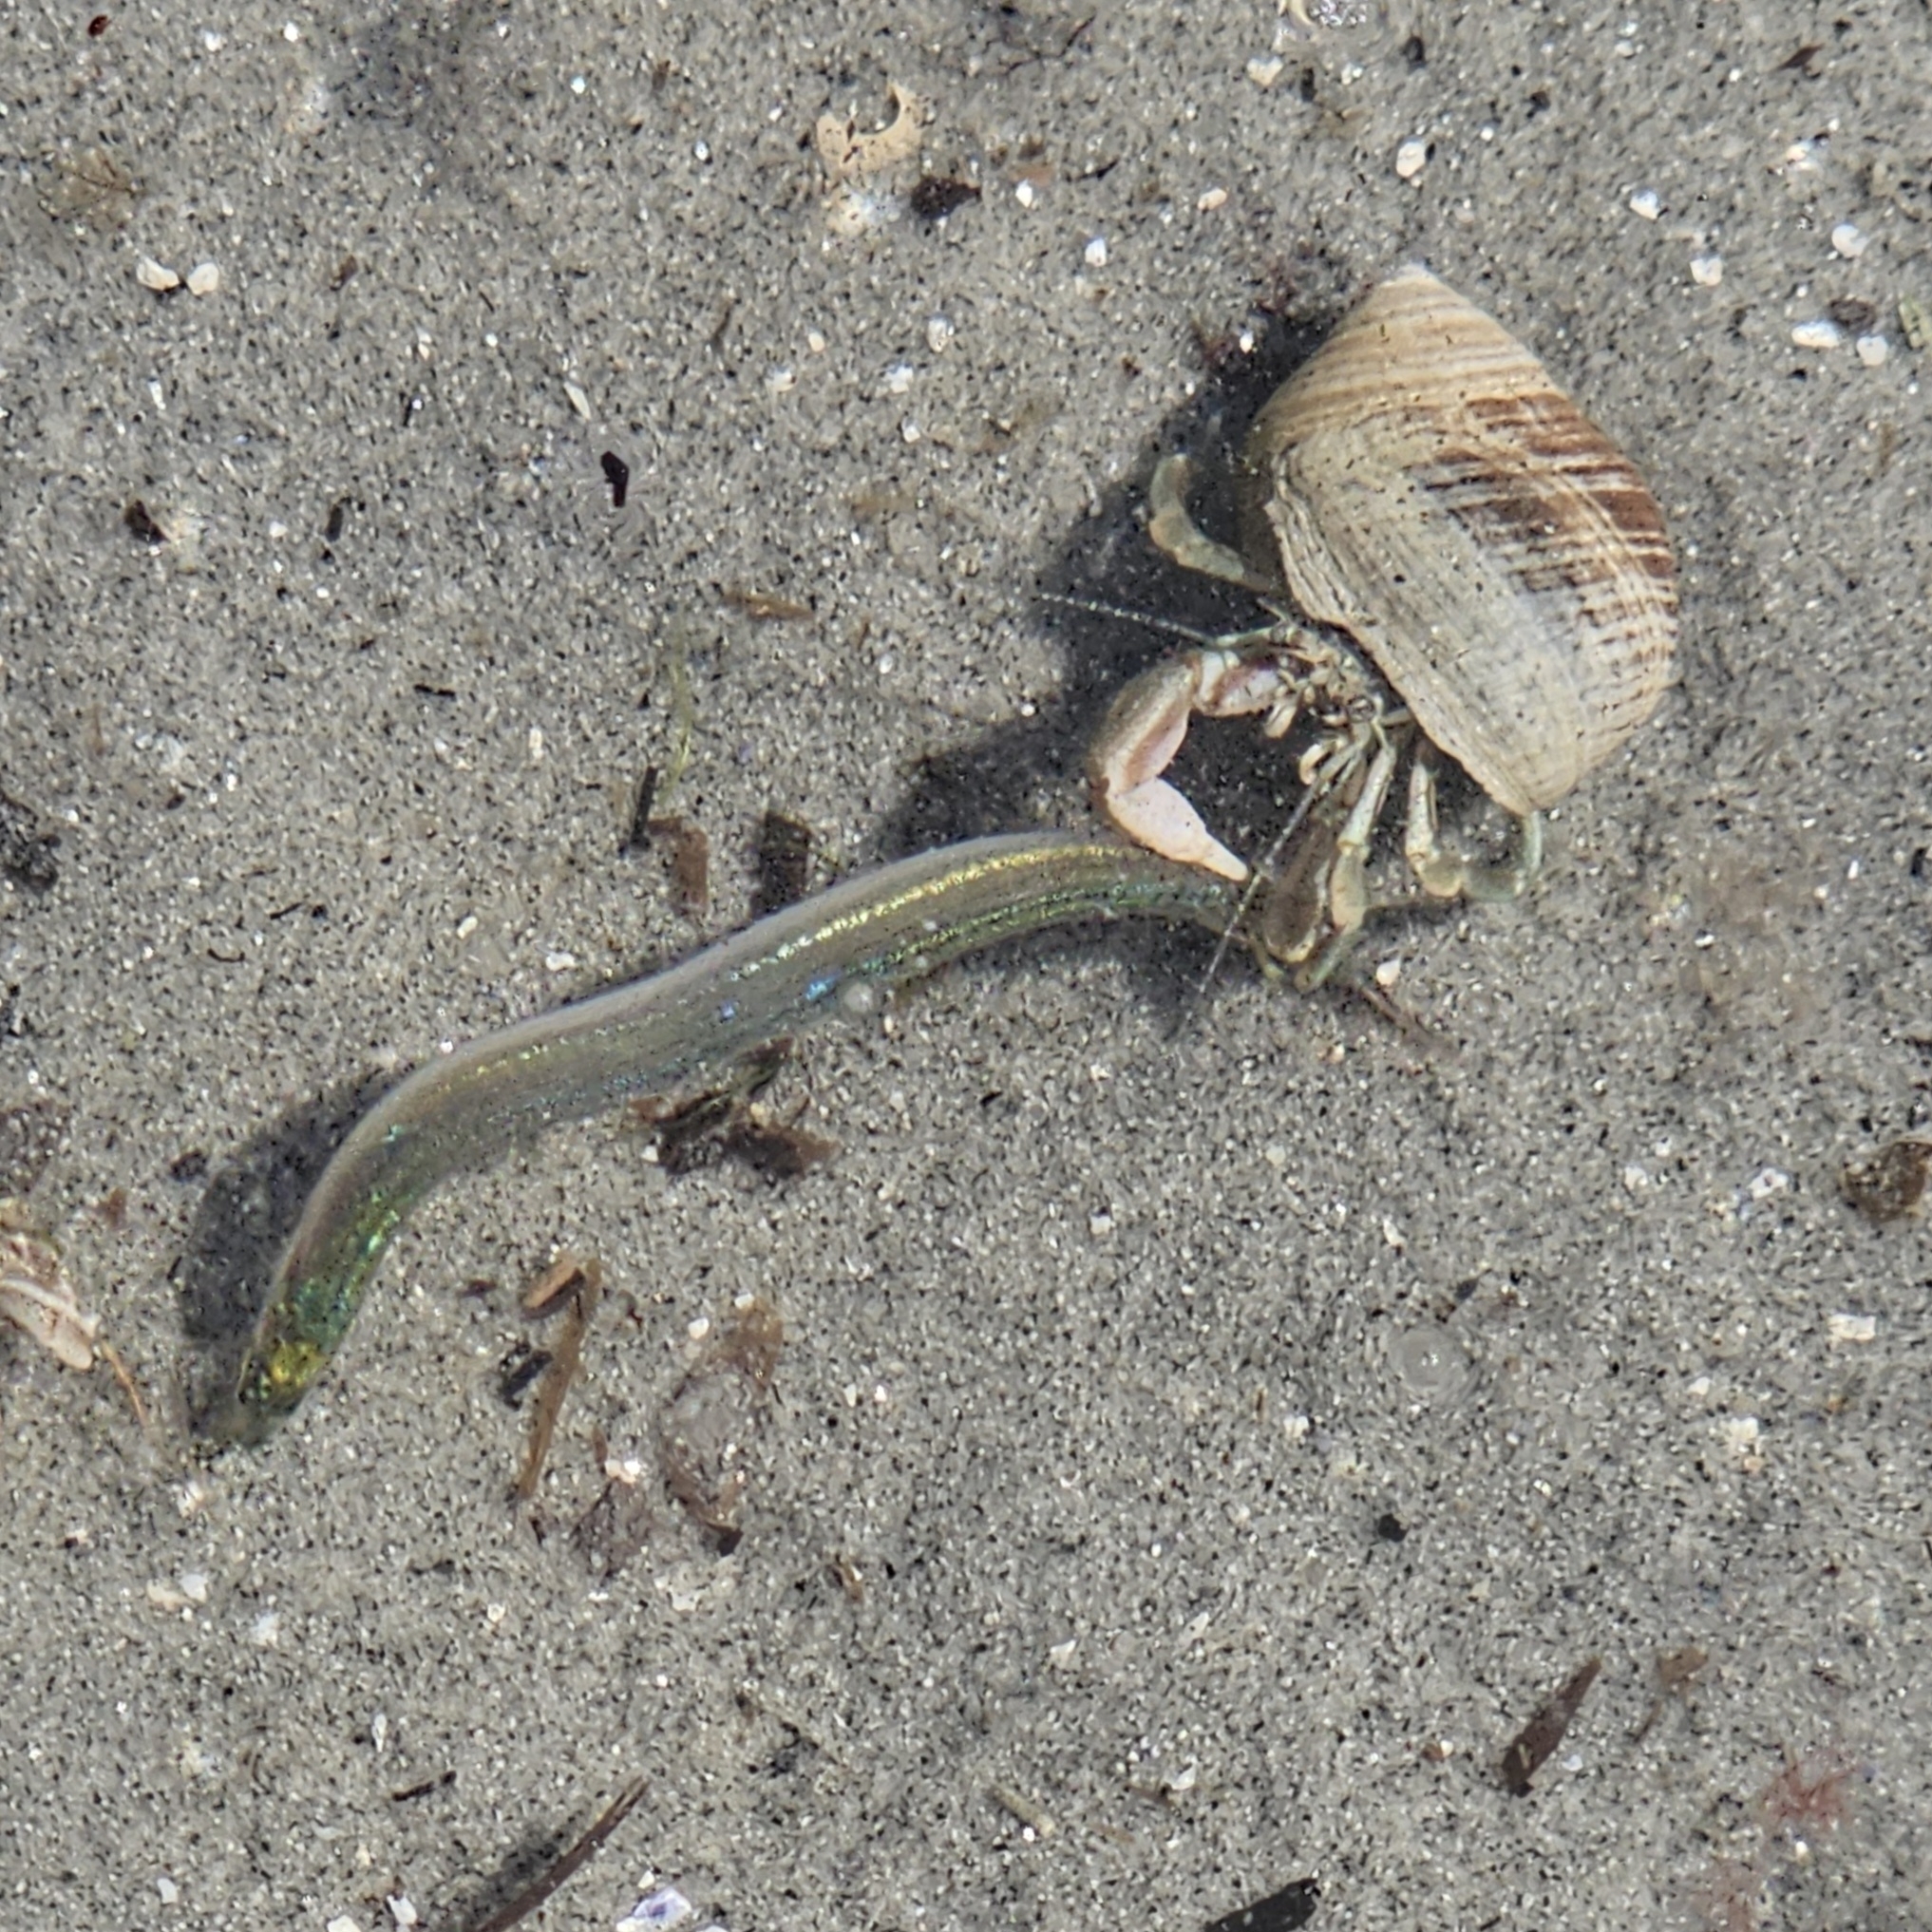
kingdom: Animalia
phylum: Arthropoda
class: Malacostraca
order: Decapoda
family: Paguridae
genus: Pagurus
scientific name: Pagurus longicarpus
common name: Long-armed hermit crab
